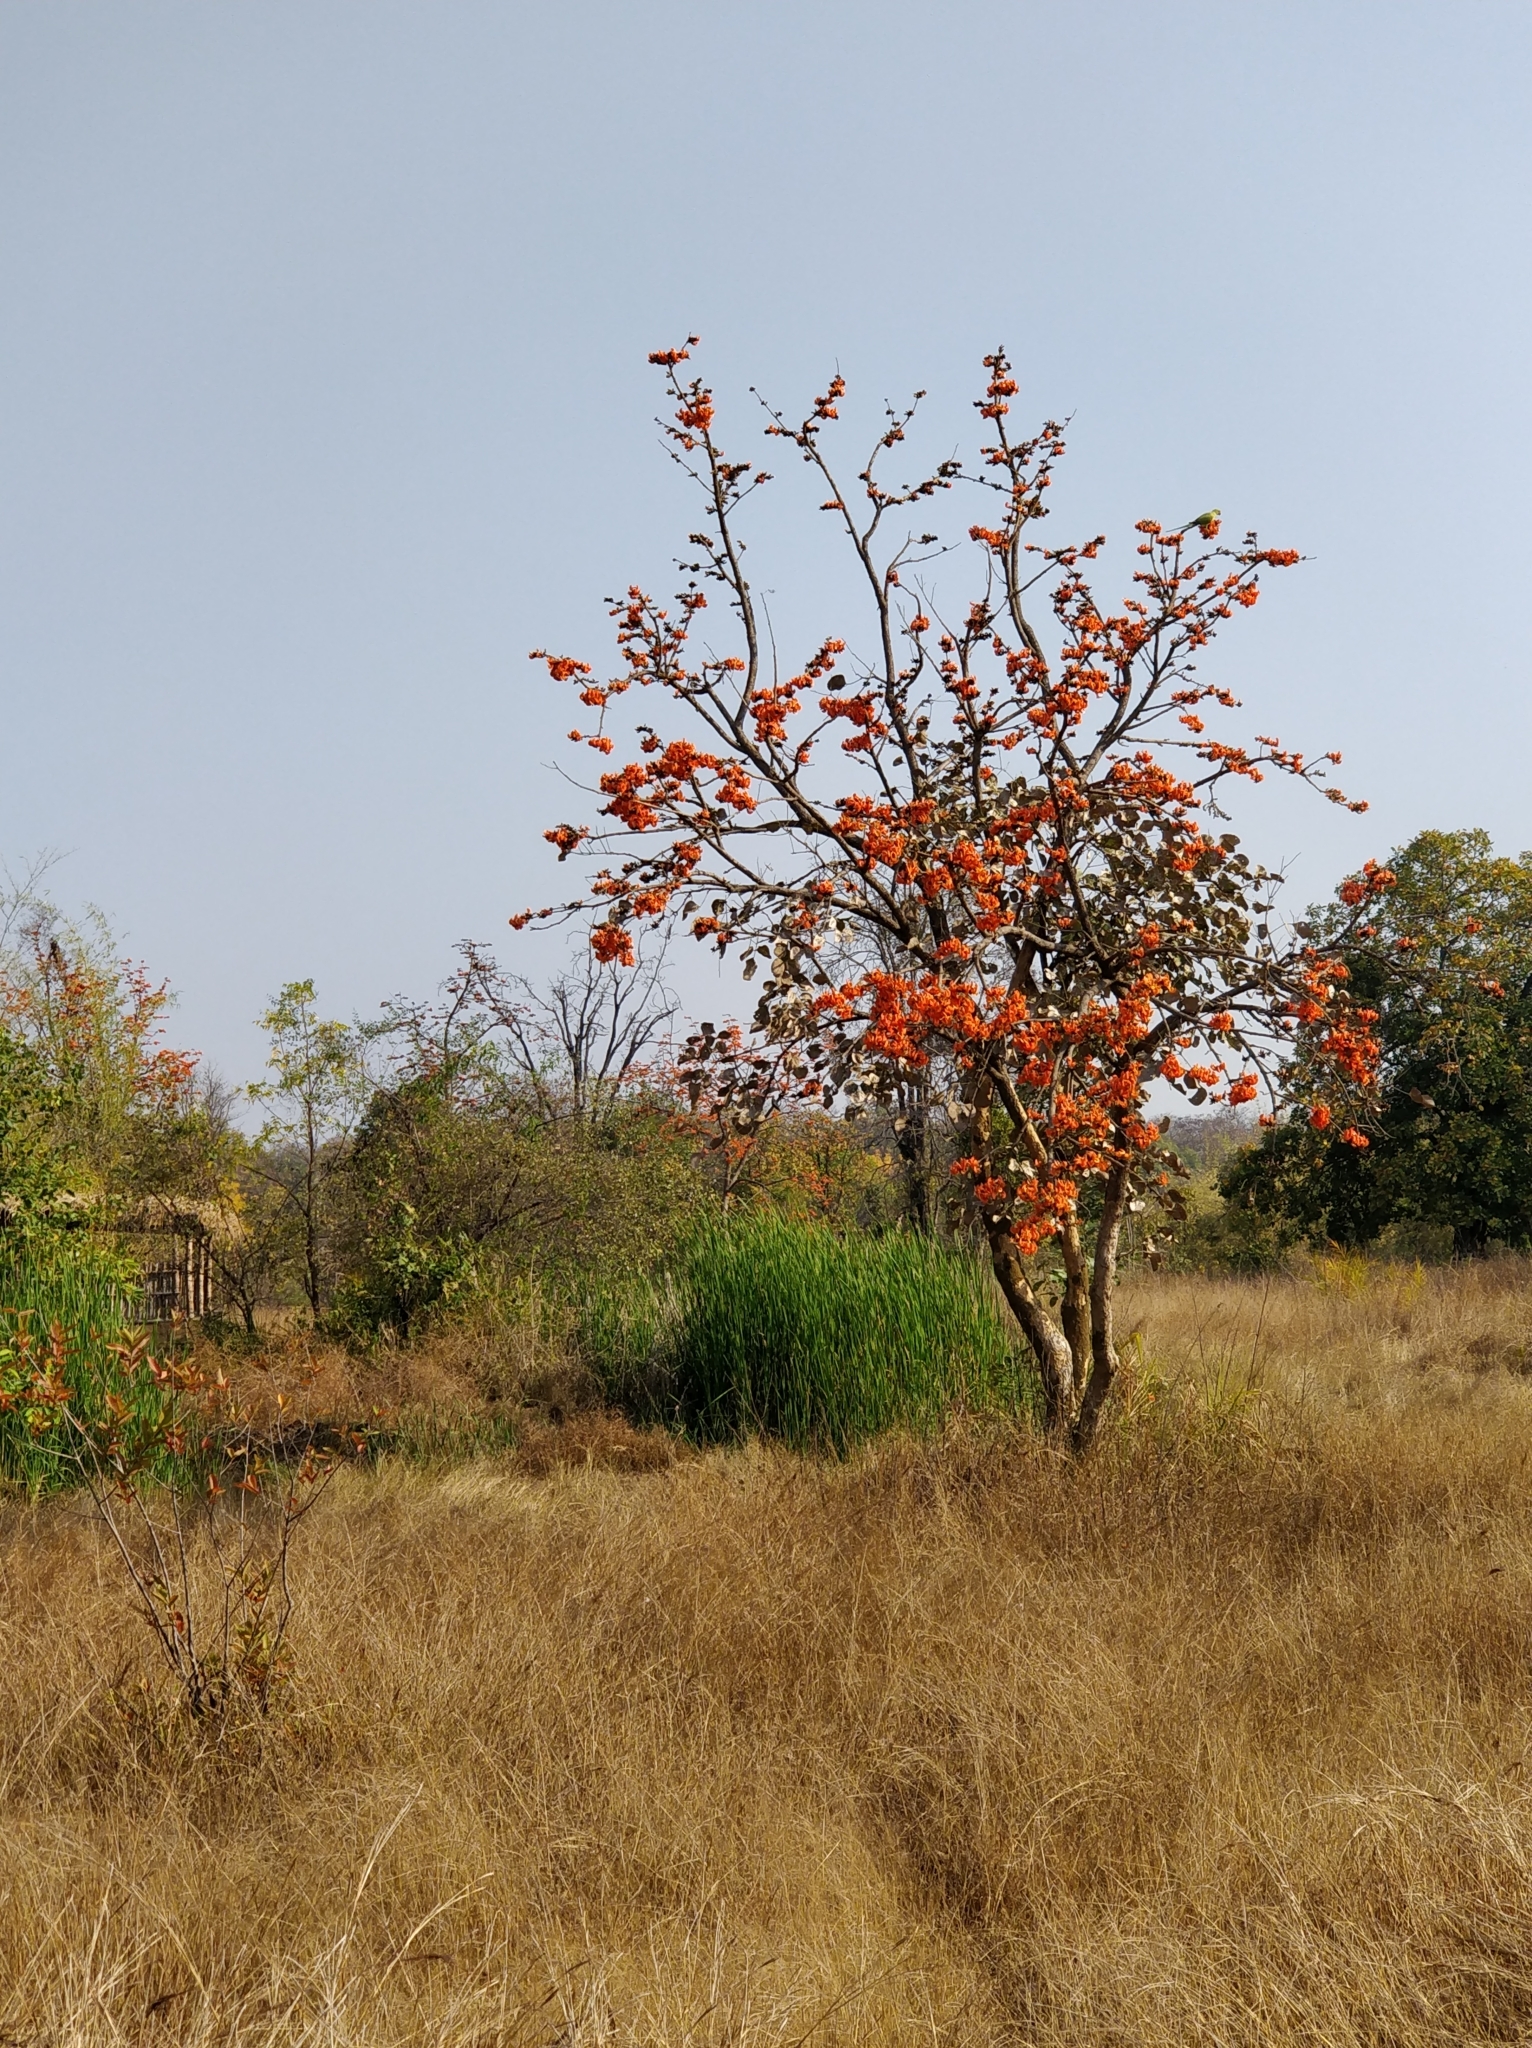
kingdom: Plantae
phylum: Tracheophyta
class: Magnoliopsida
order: Fabales
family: Fabaceae
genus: Butea
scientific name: Butea monosperma
